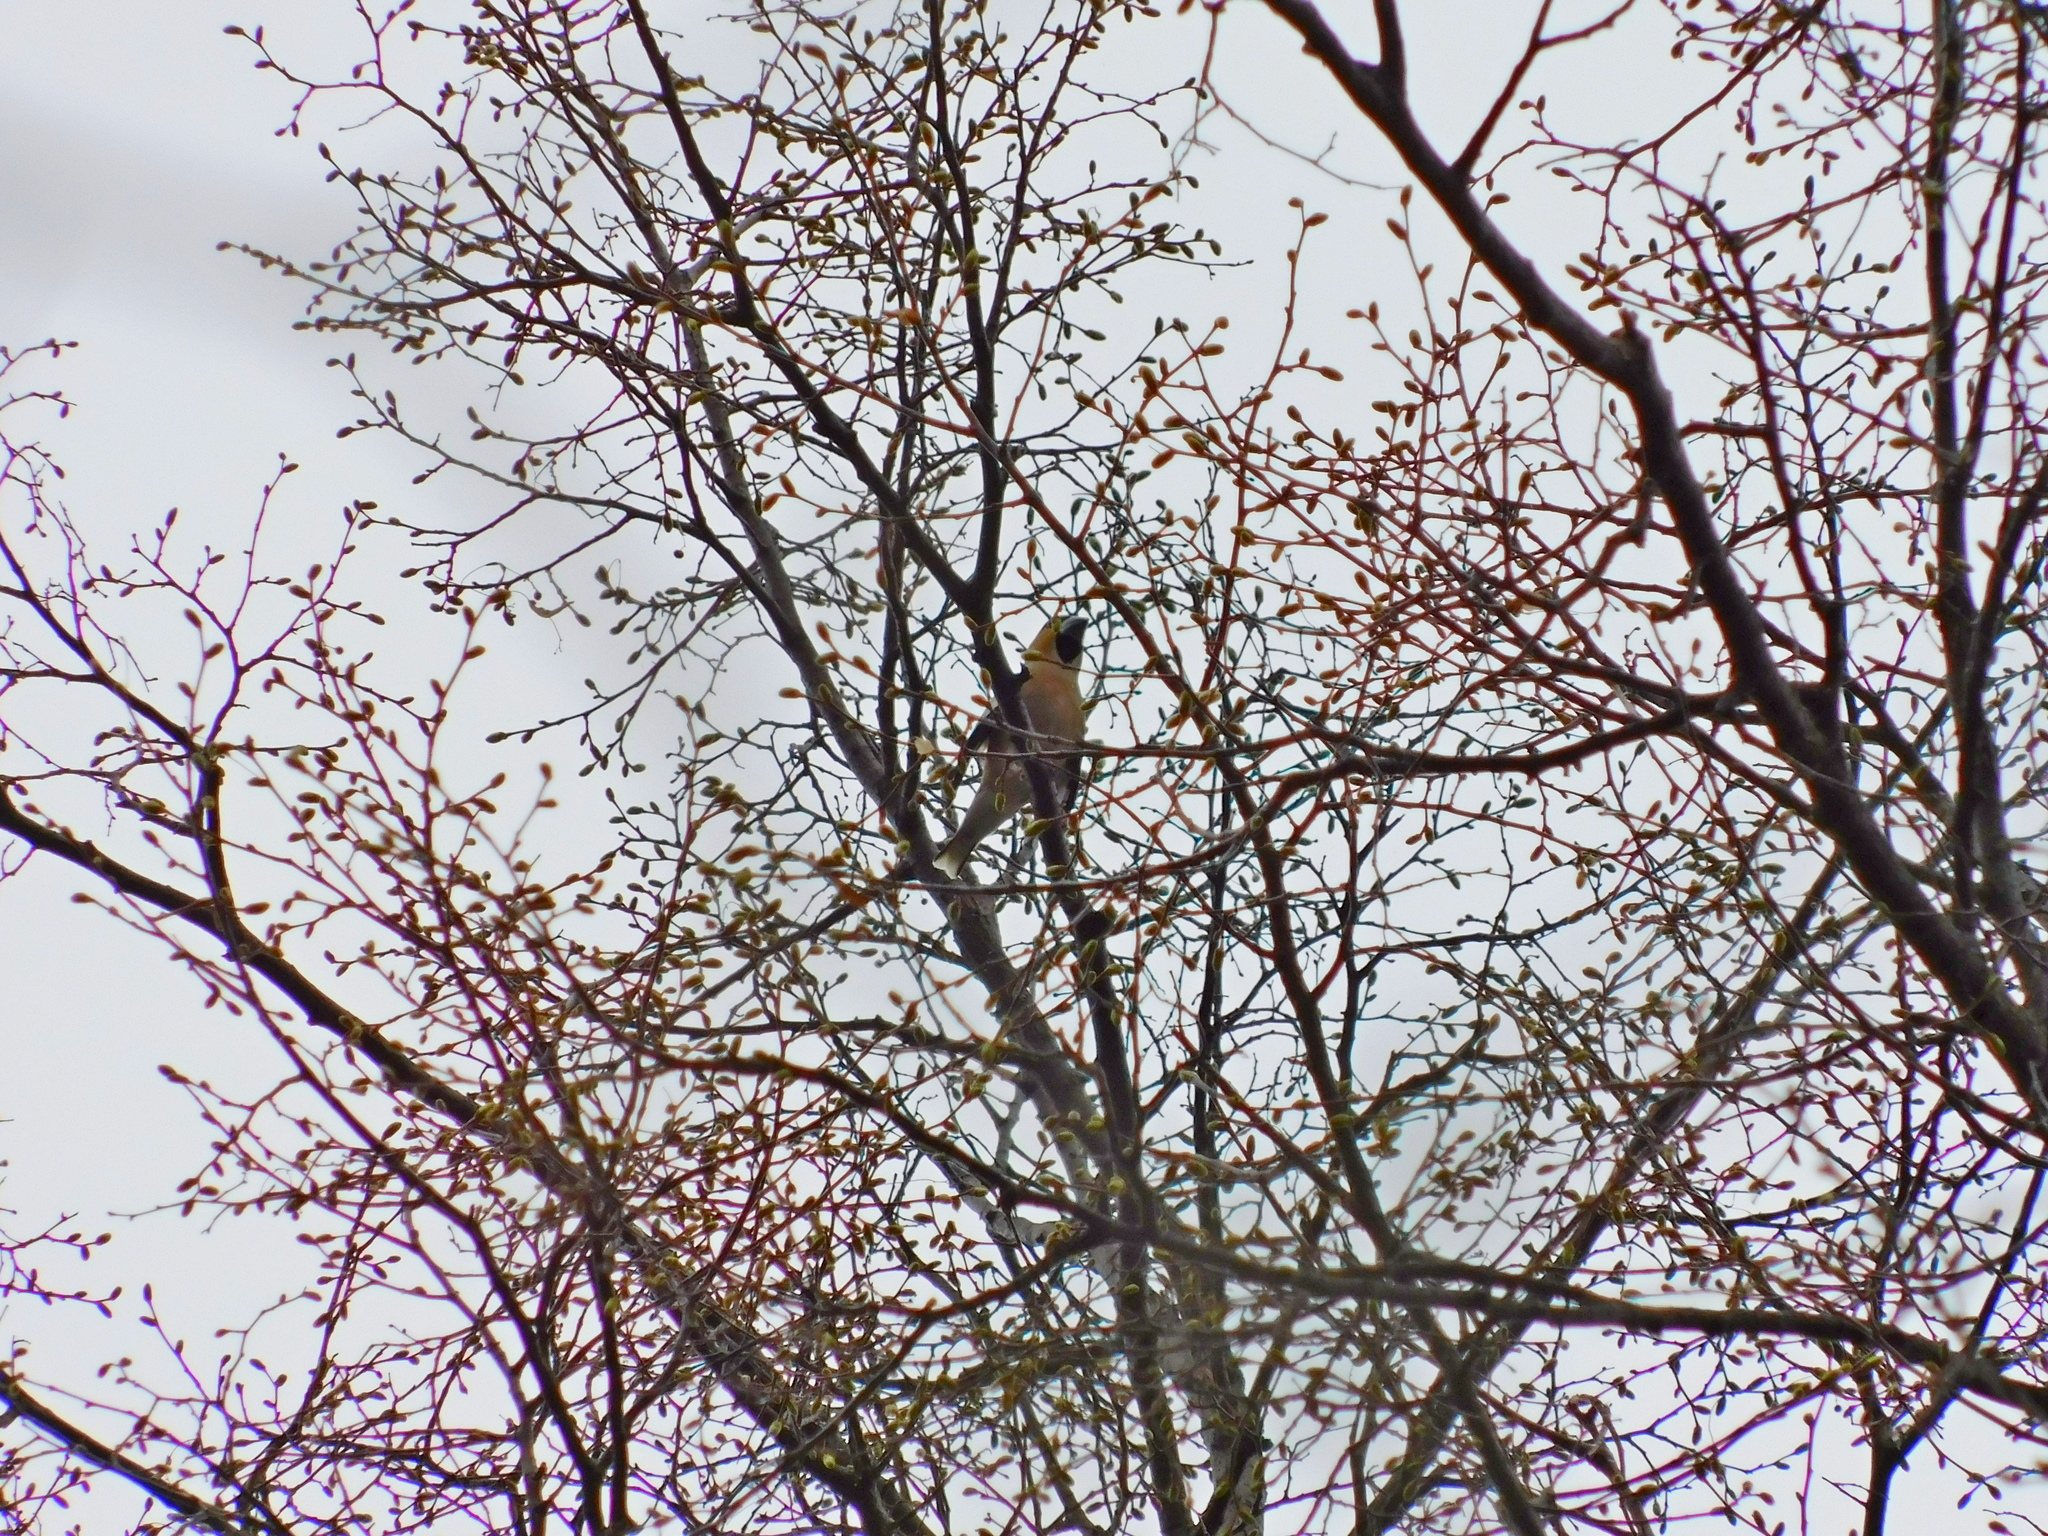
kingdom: Animalia
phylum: Chordata
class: Aves
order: Passeriformes
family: Fringillidae
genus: Coccothraustes
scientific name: Coccothraustes coccothraustes
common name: Hawfinch
